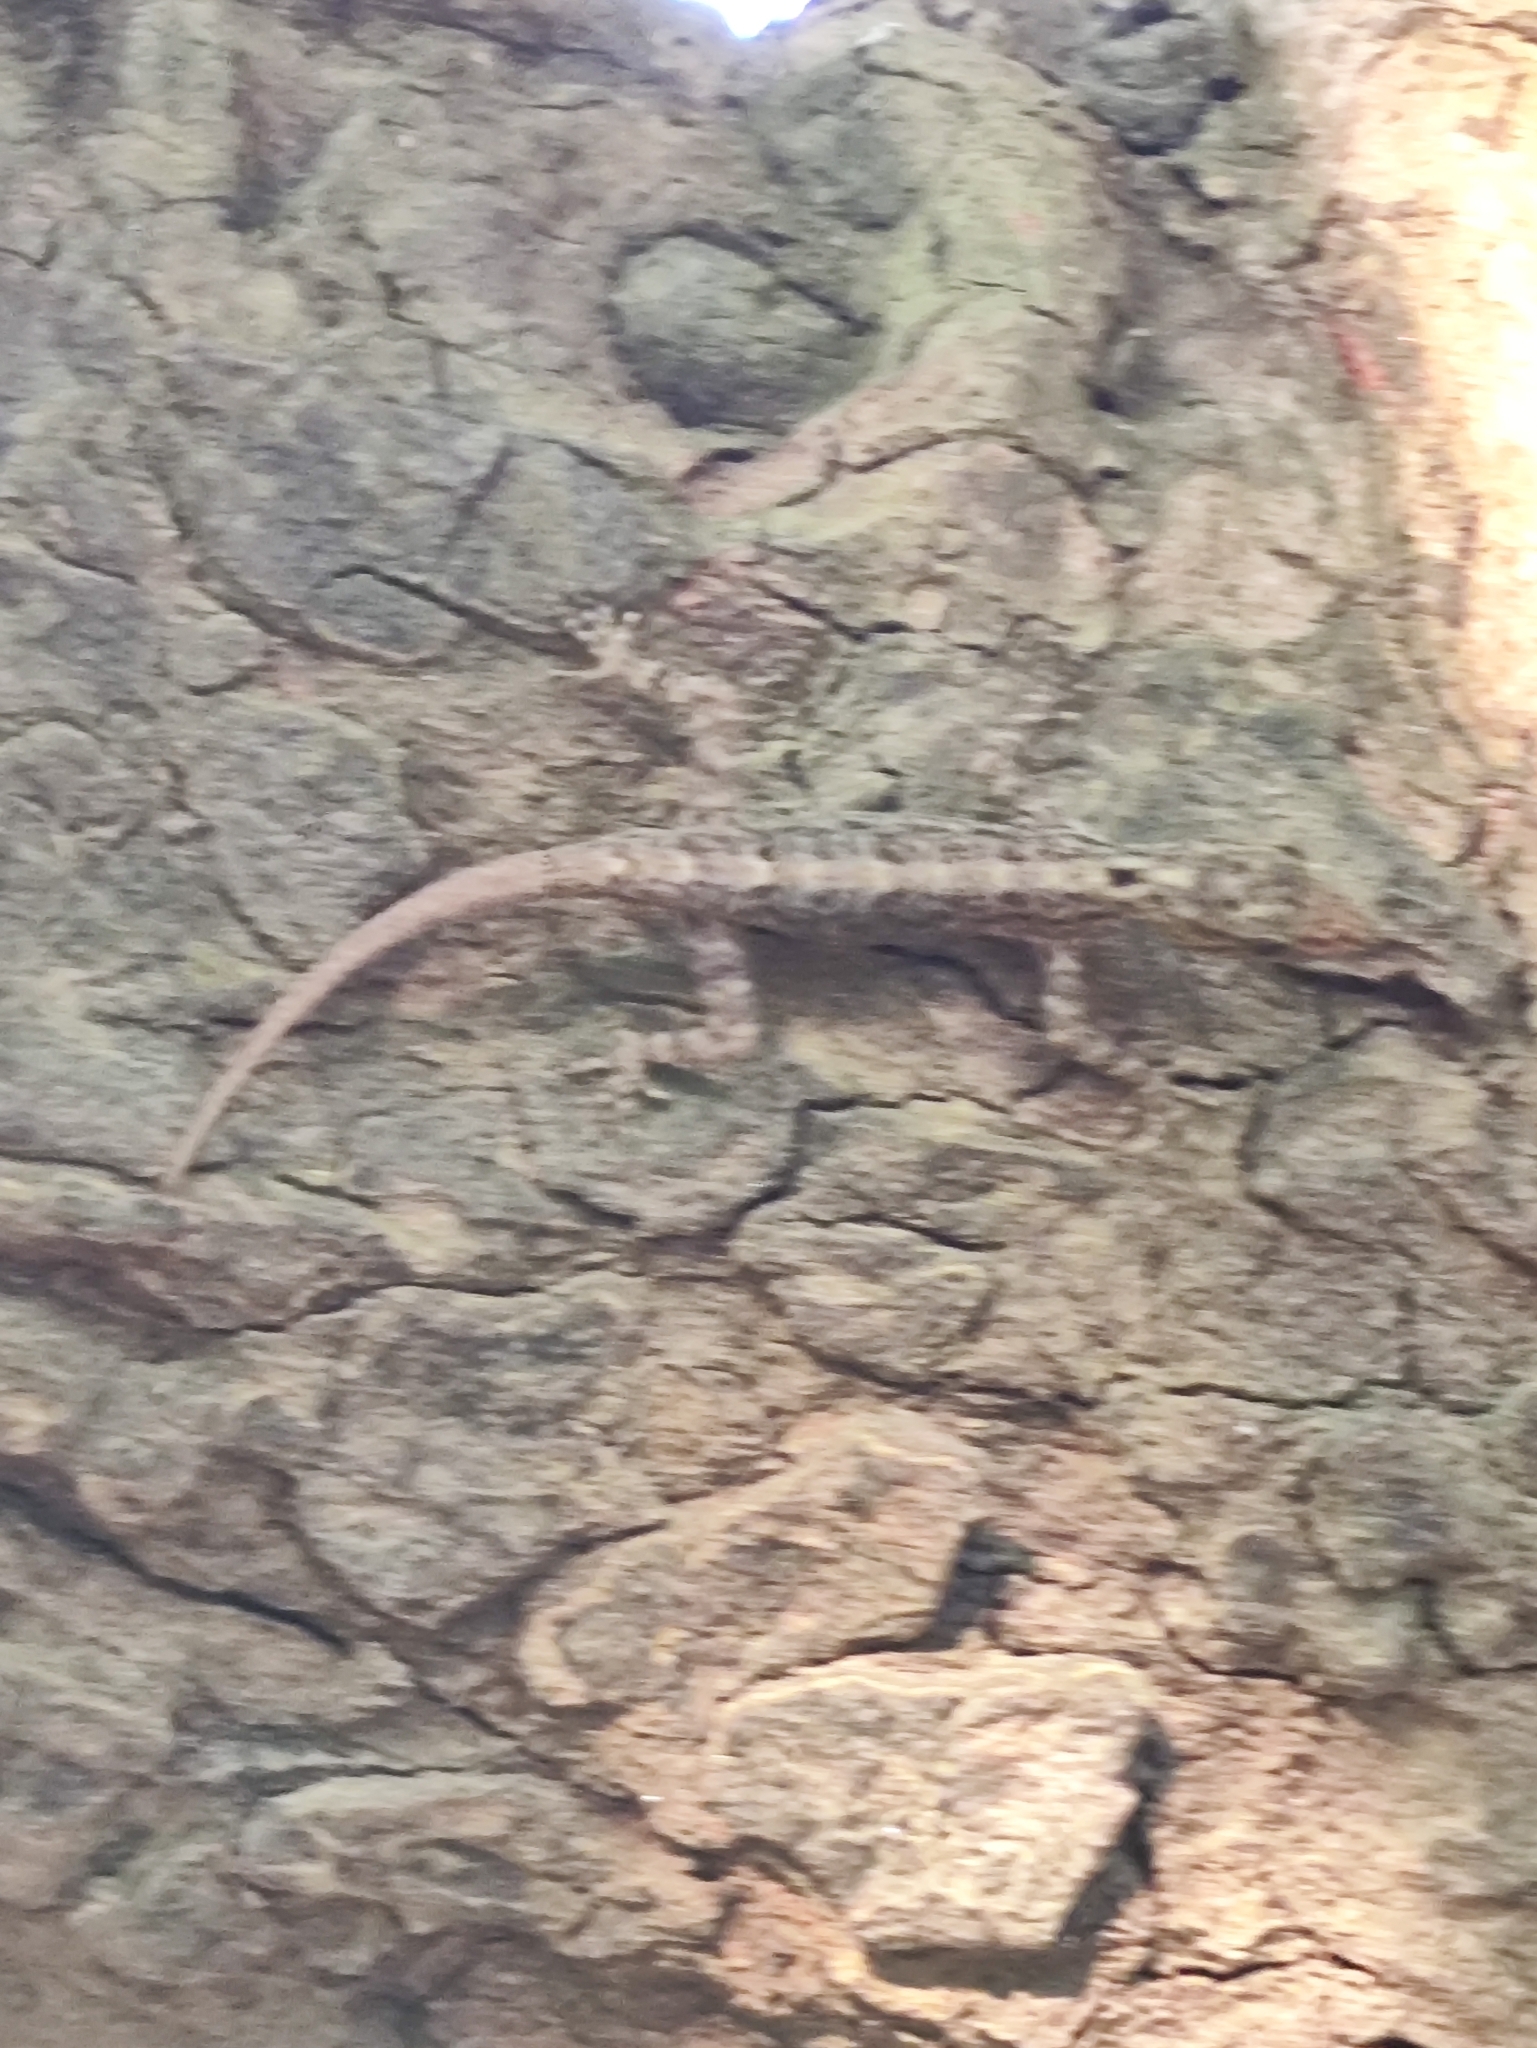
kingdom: Animalia
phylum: Chordata
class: Squamata
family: Gekkonidae
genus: Cnemaspis
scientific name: Cnemaspis littoralis
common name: Coastal day gecko
